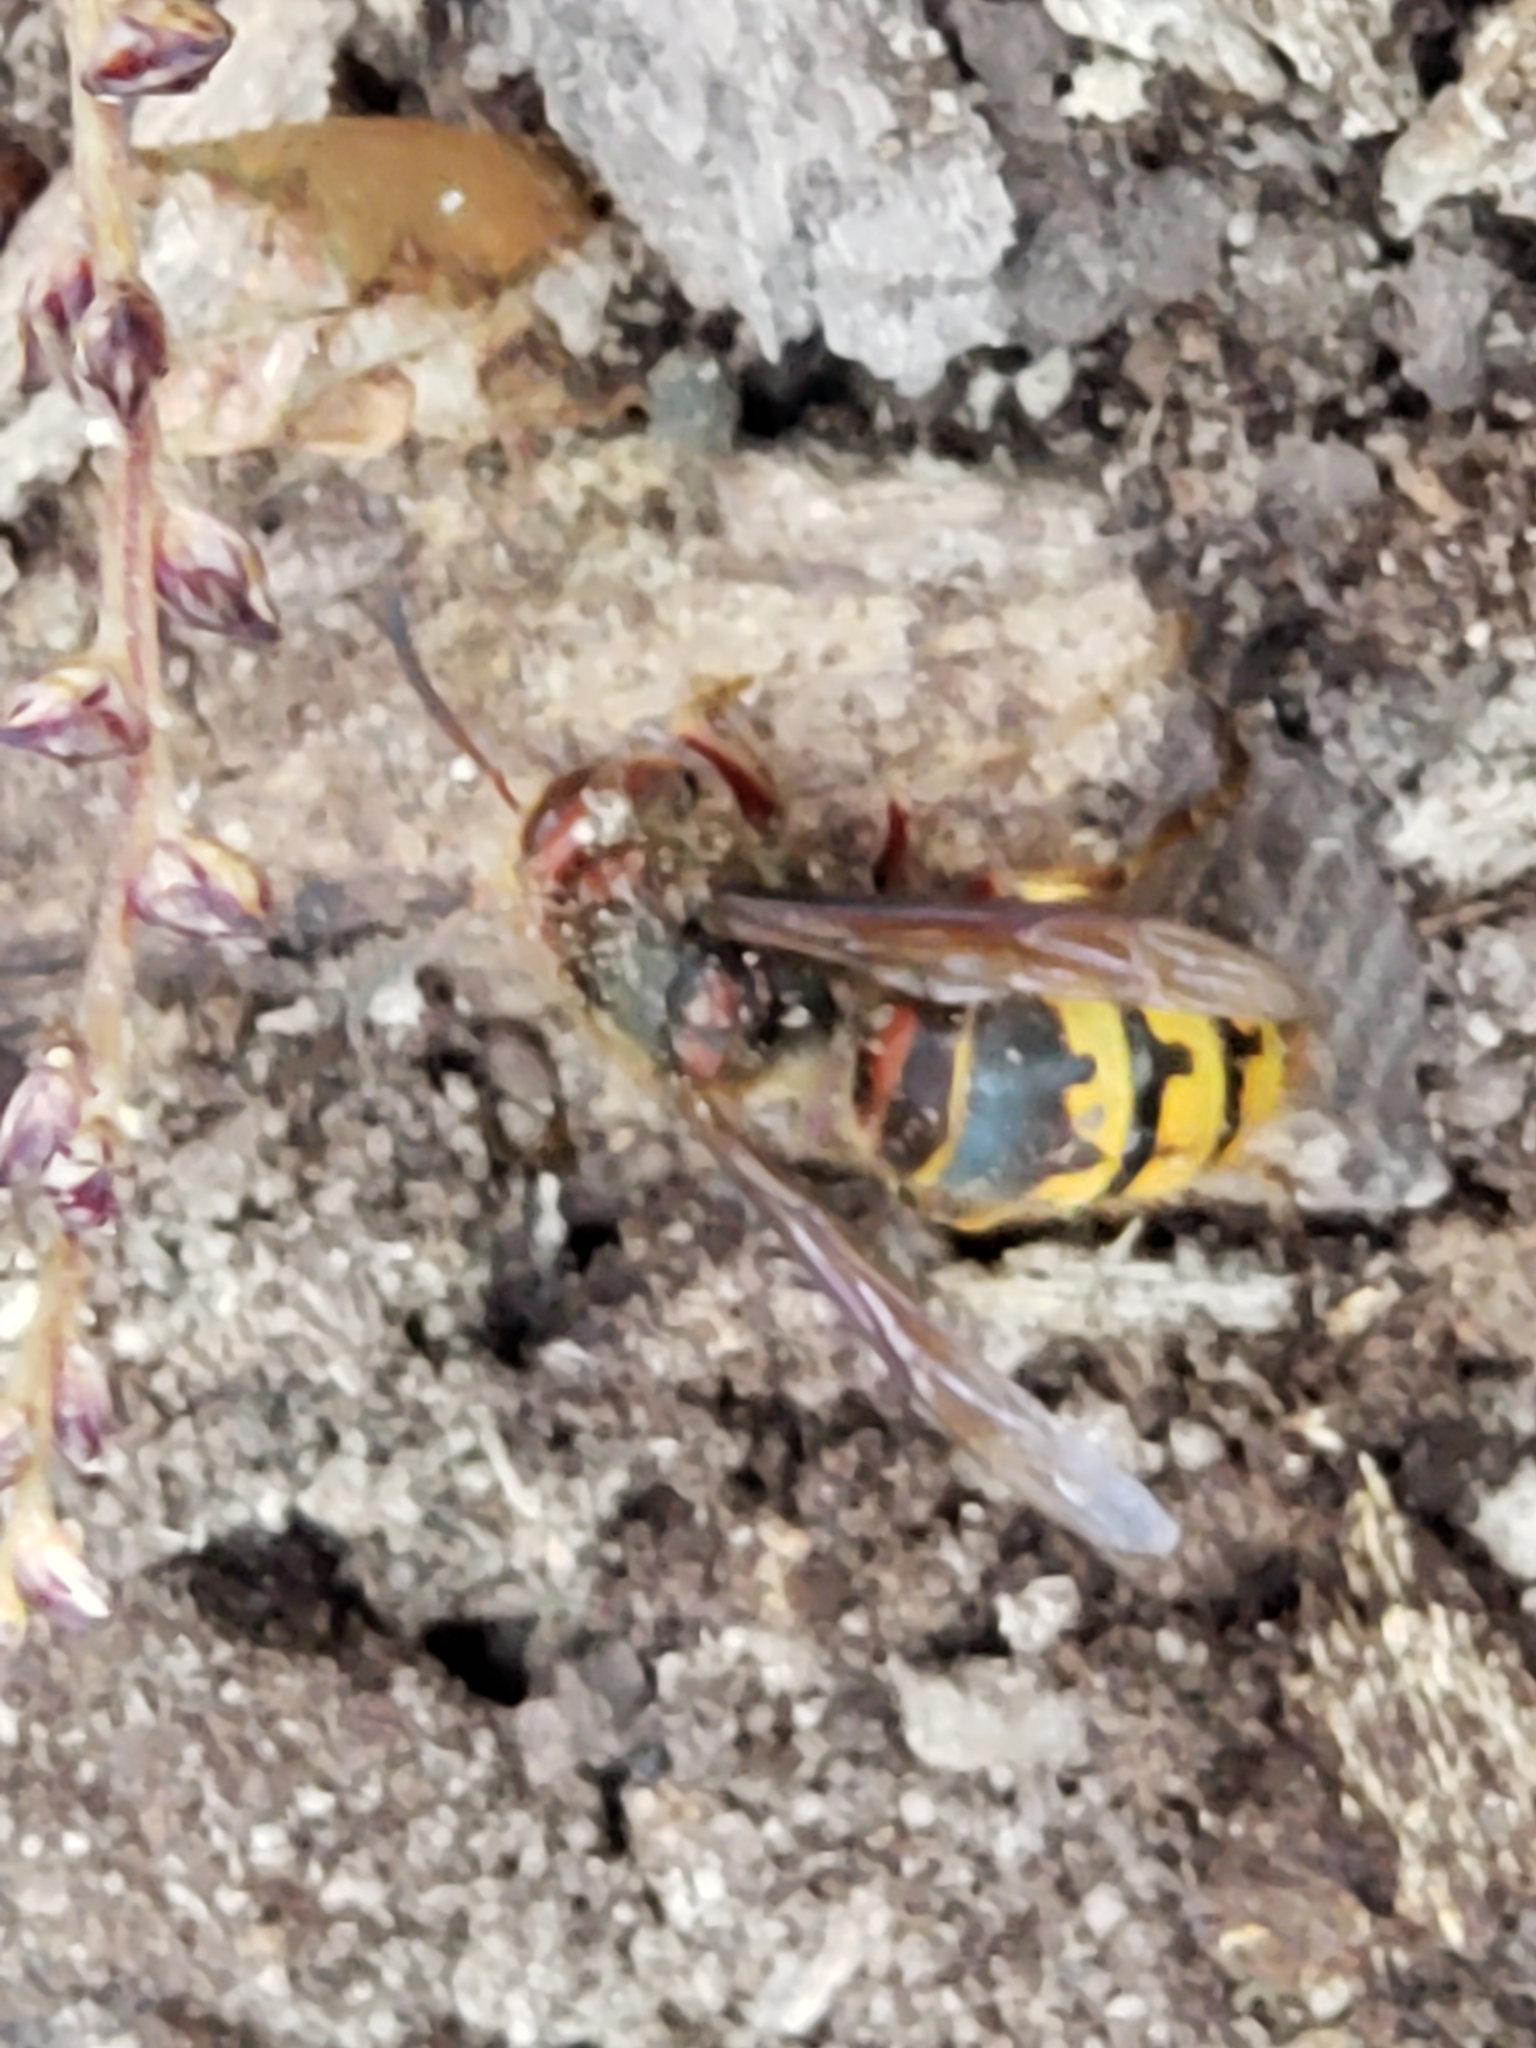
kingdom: Animalia
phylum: Arthropoda
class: Insecta
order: Hymenoptera
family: Vespidae
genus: Vespa
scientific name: Vespa crabro
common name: Hornet
